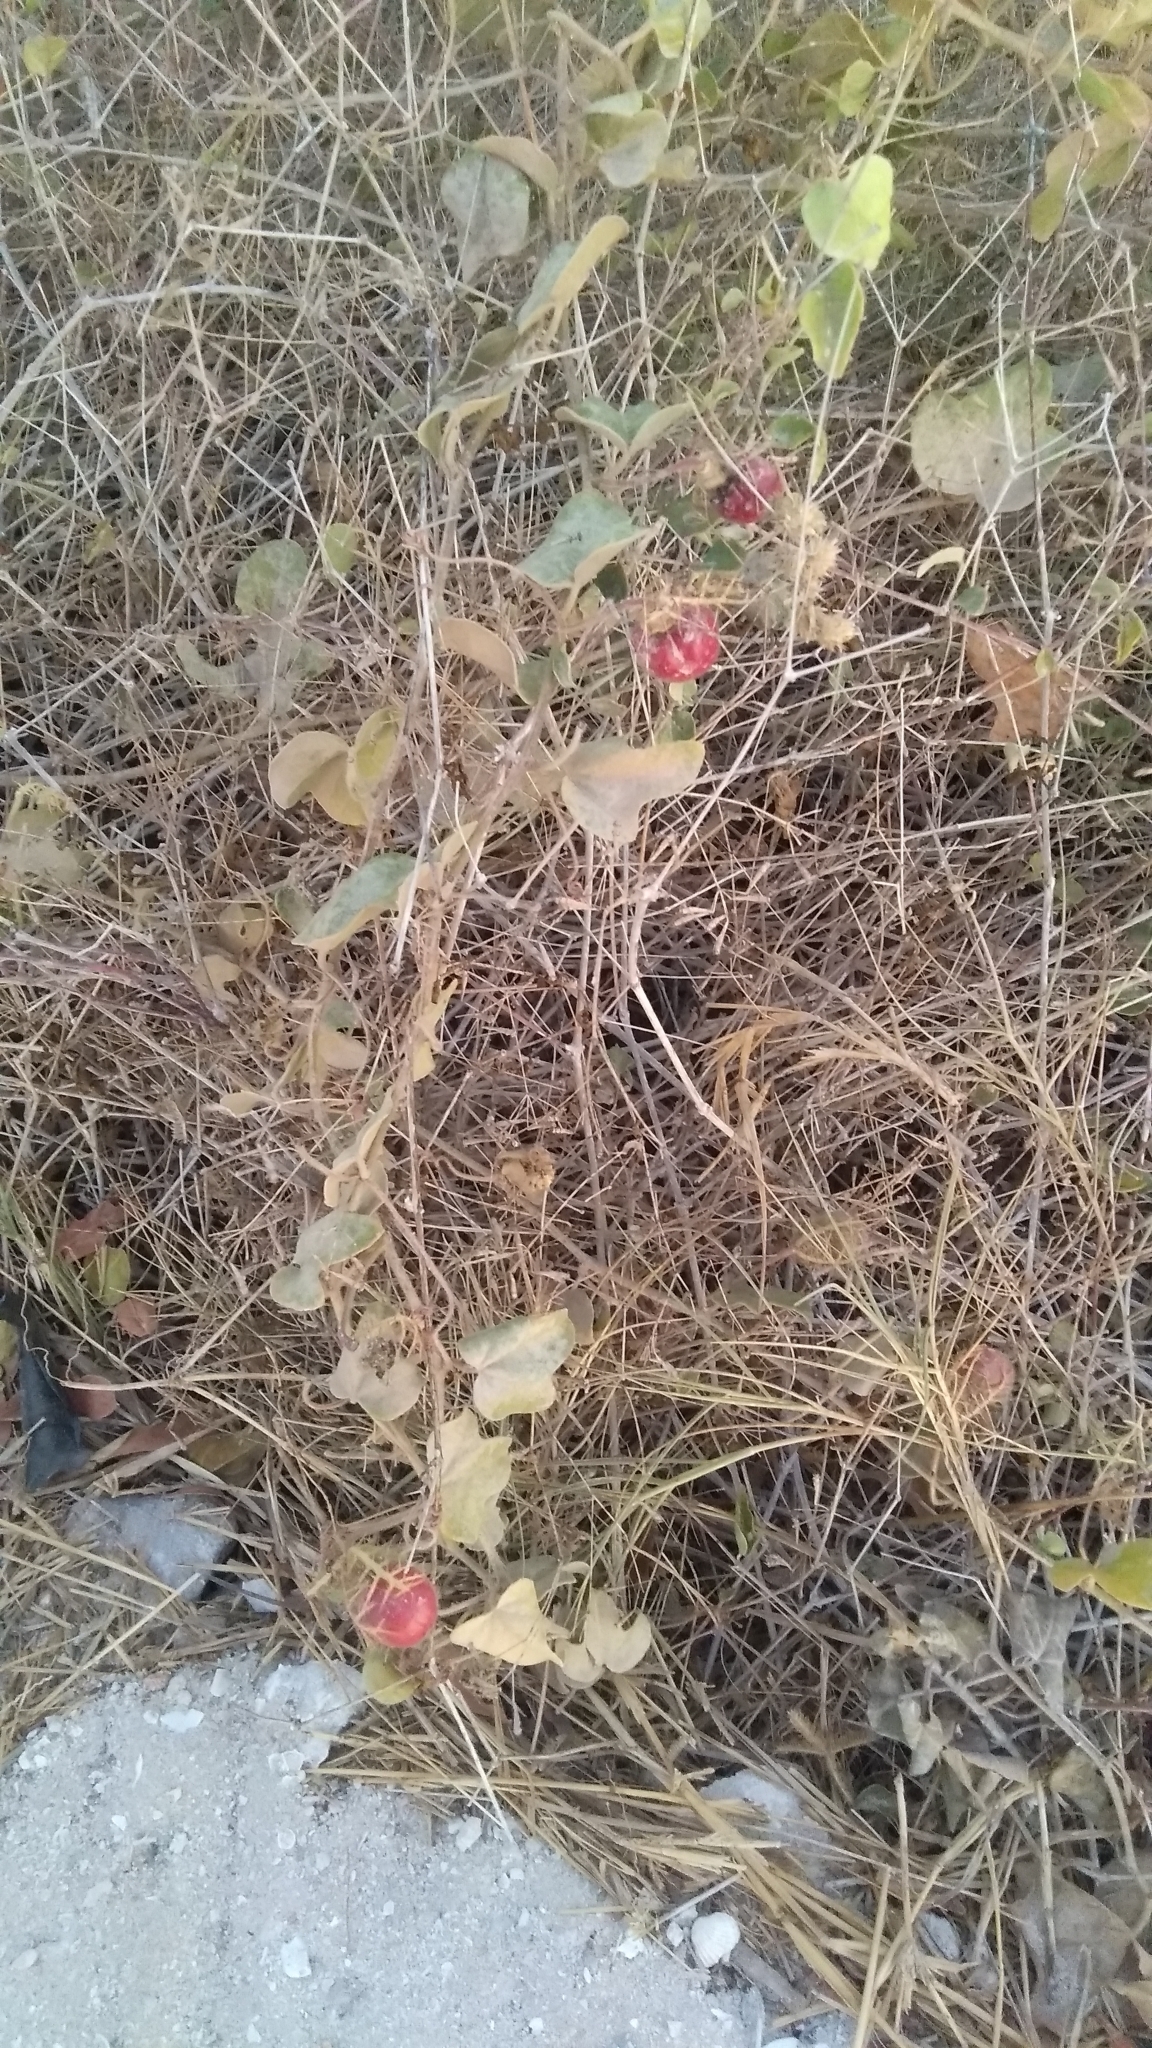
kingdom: Plantae
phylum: Tracheophyta
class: Magnoliopsida
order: Malpighiales
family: Passifloraceae
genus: Passiflora
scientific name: Passiflora foetida
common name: Fetid passionflower
